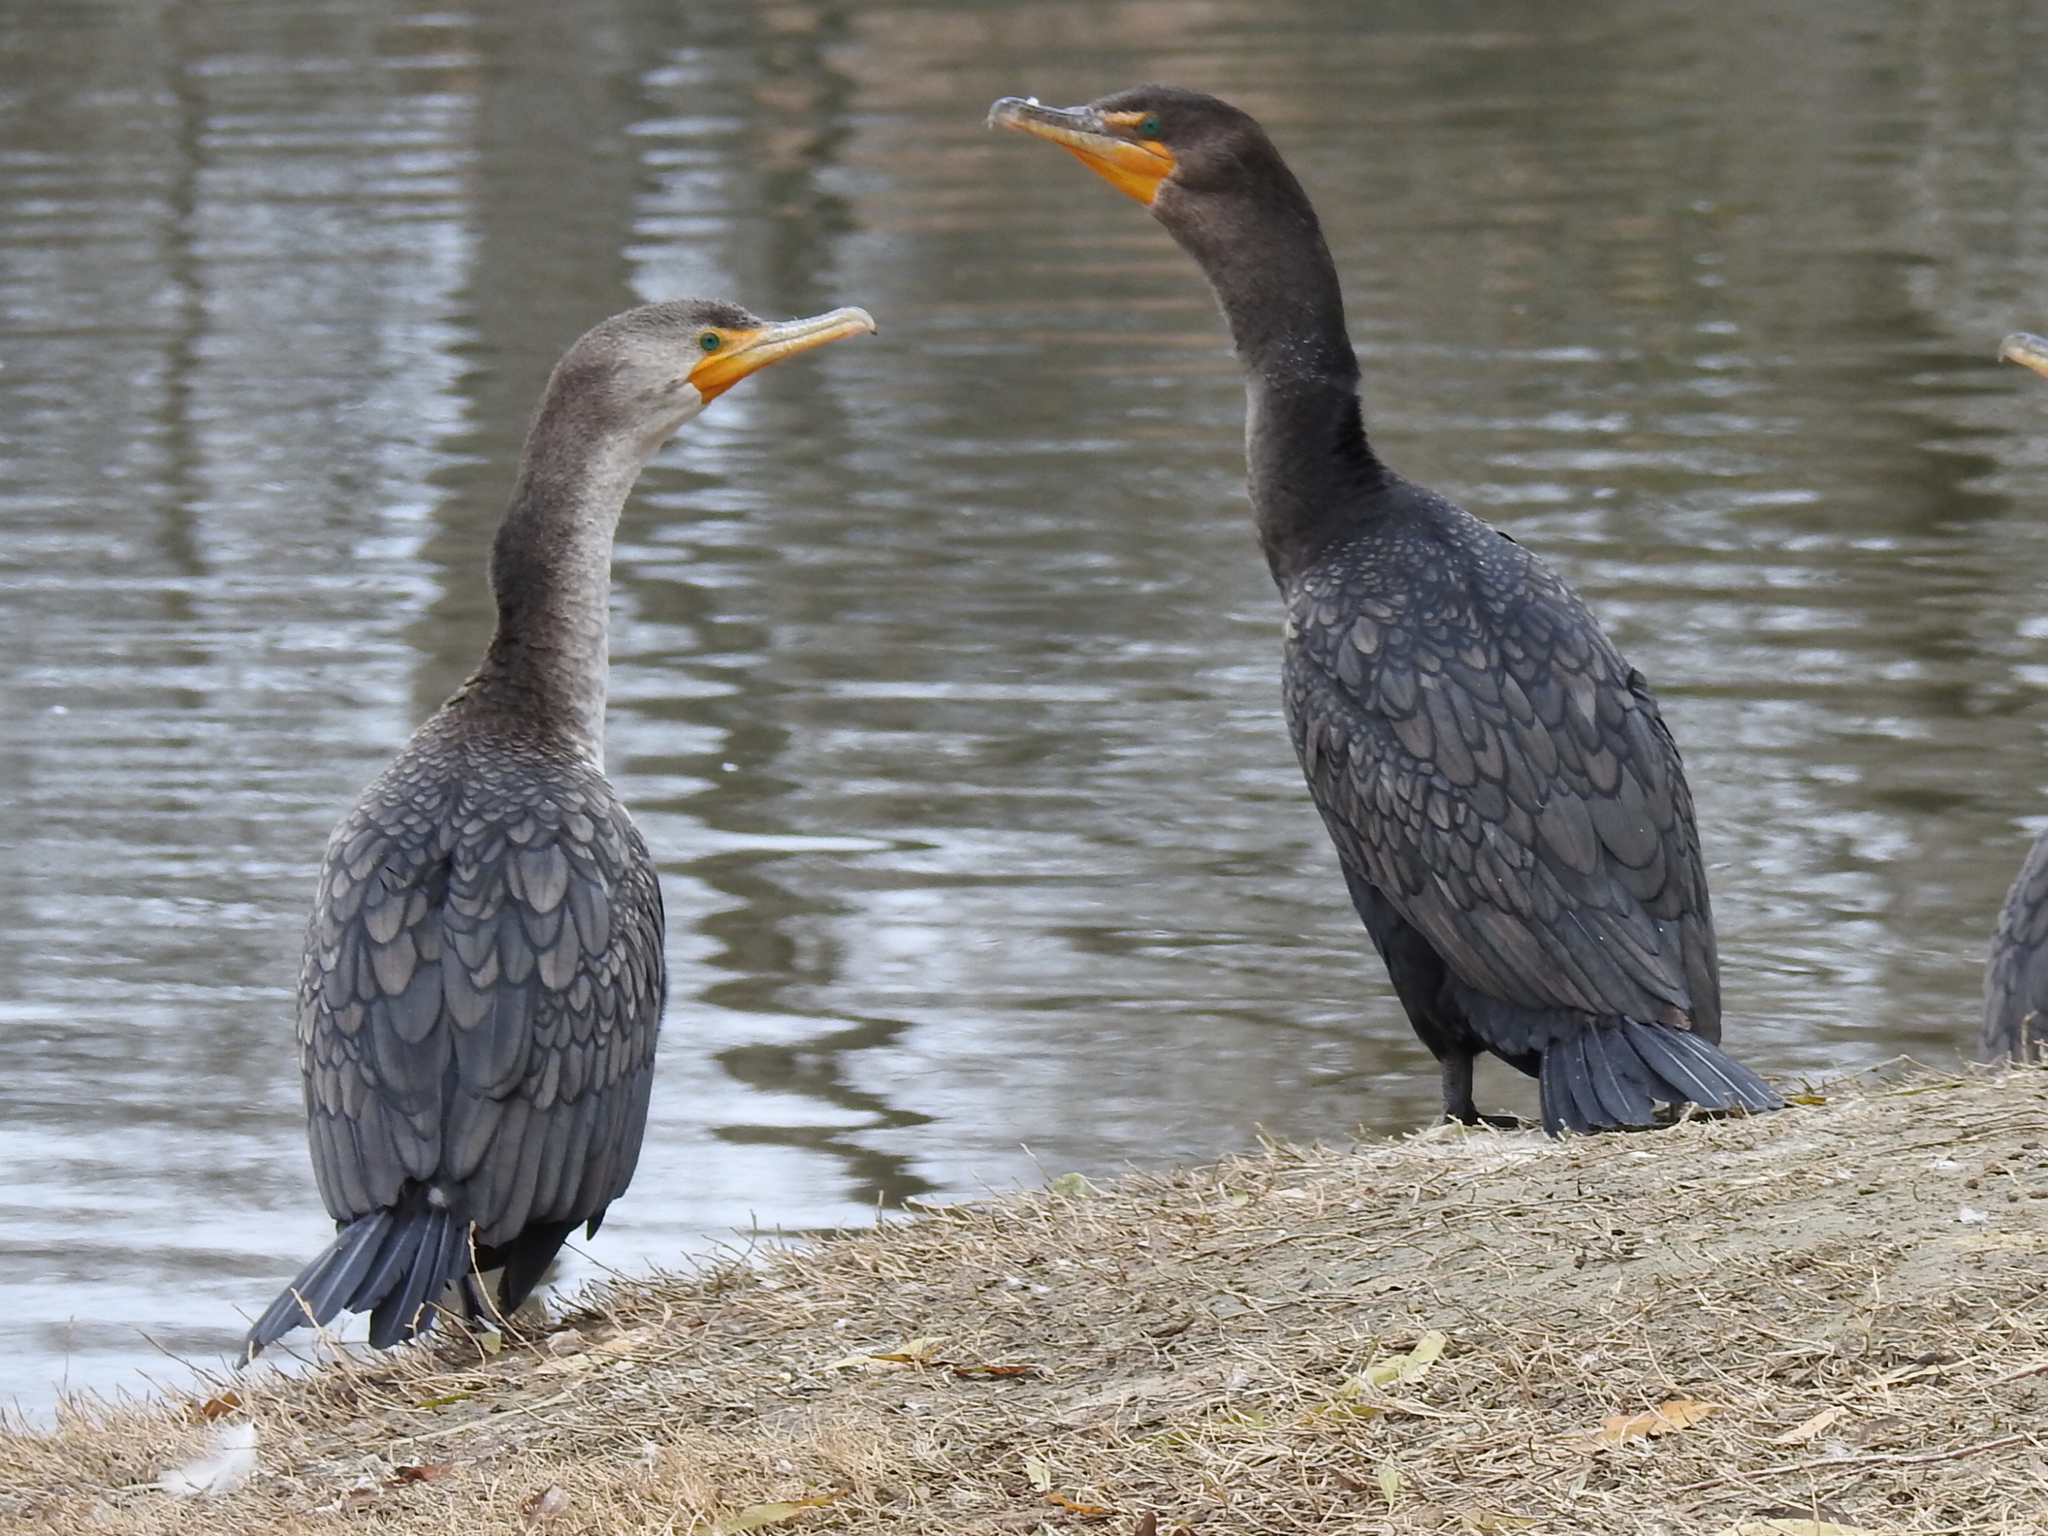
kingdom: Animalia
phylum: Chordata
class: Aves
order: Suliformes
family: Phalacrocoracidae
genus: Phalacrocorax
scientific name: Phalacrocorax auritus
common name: Double-crested cormorant
